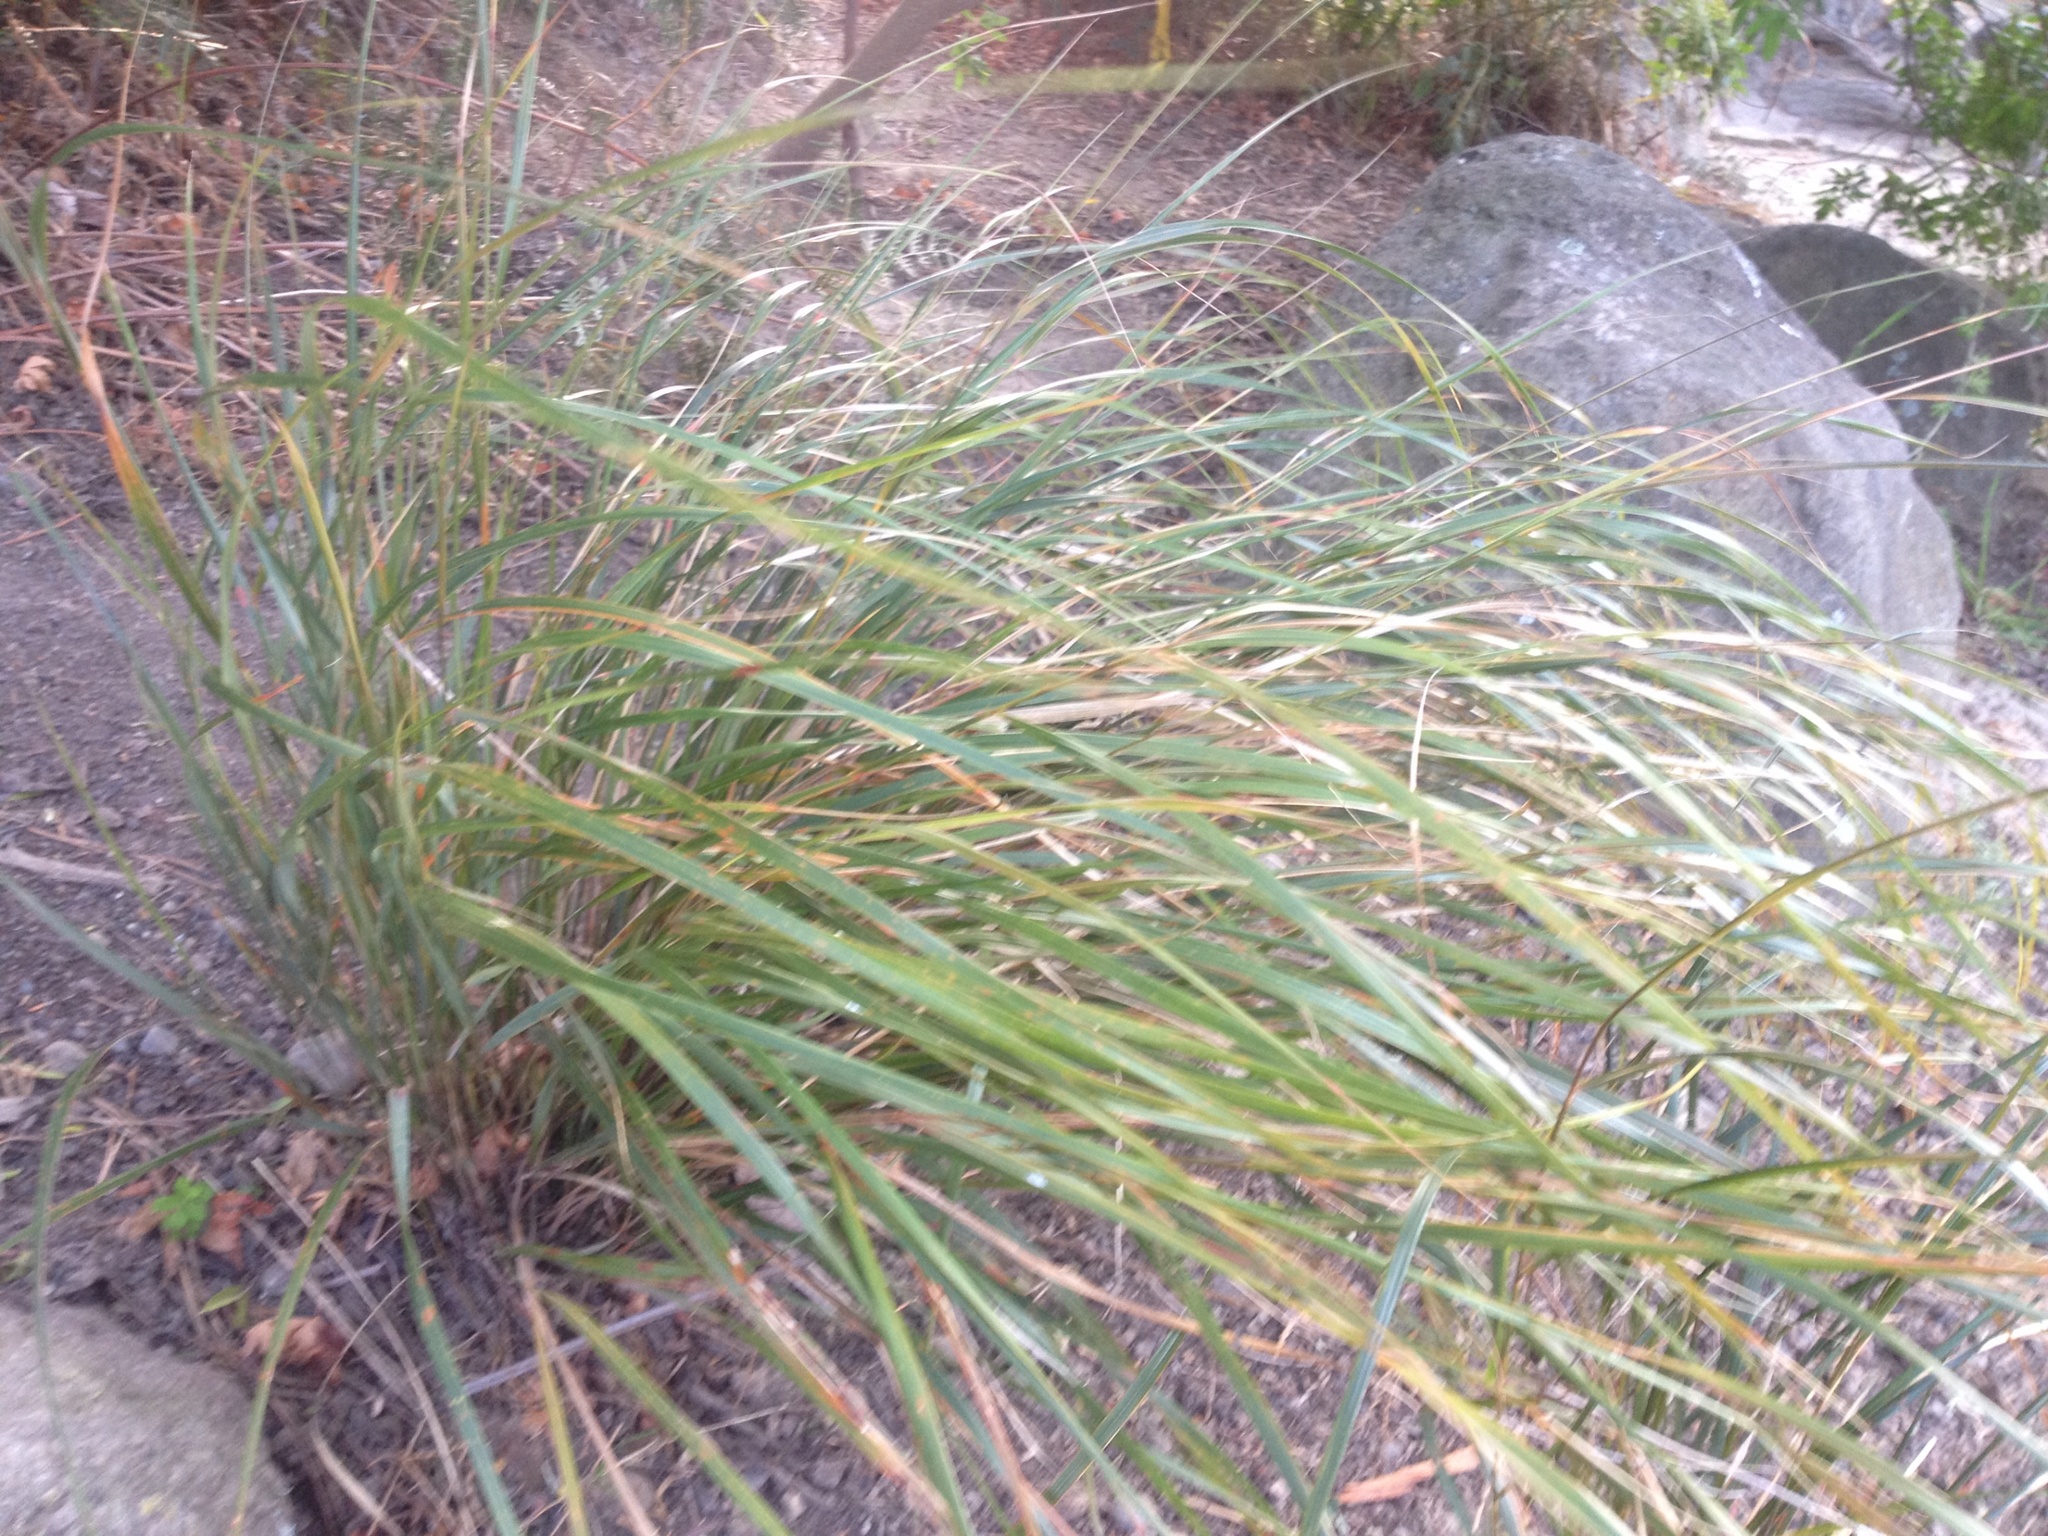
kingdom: Plantae
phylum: Tracheophyta
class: Liliopsida
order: Poales
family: Poaceae
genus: Anemanthele
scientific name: Anemanthele lessoniana
